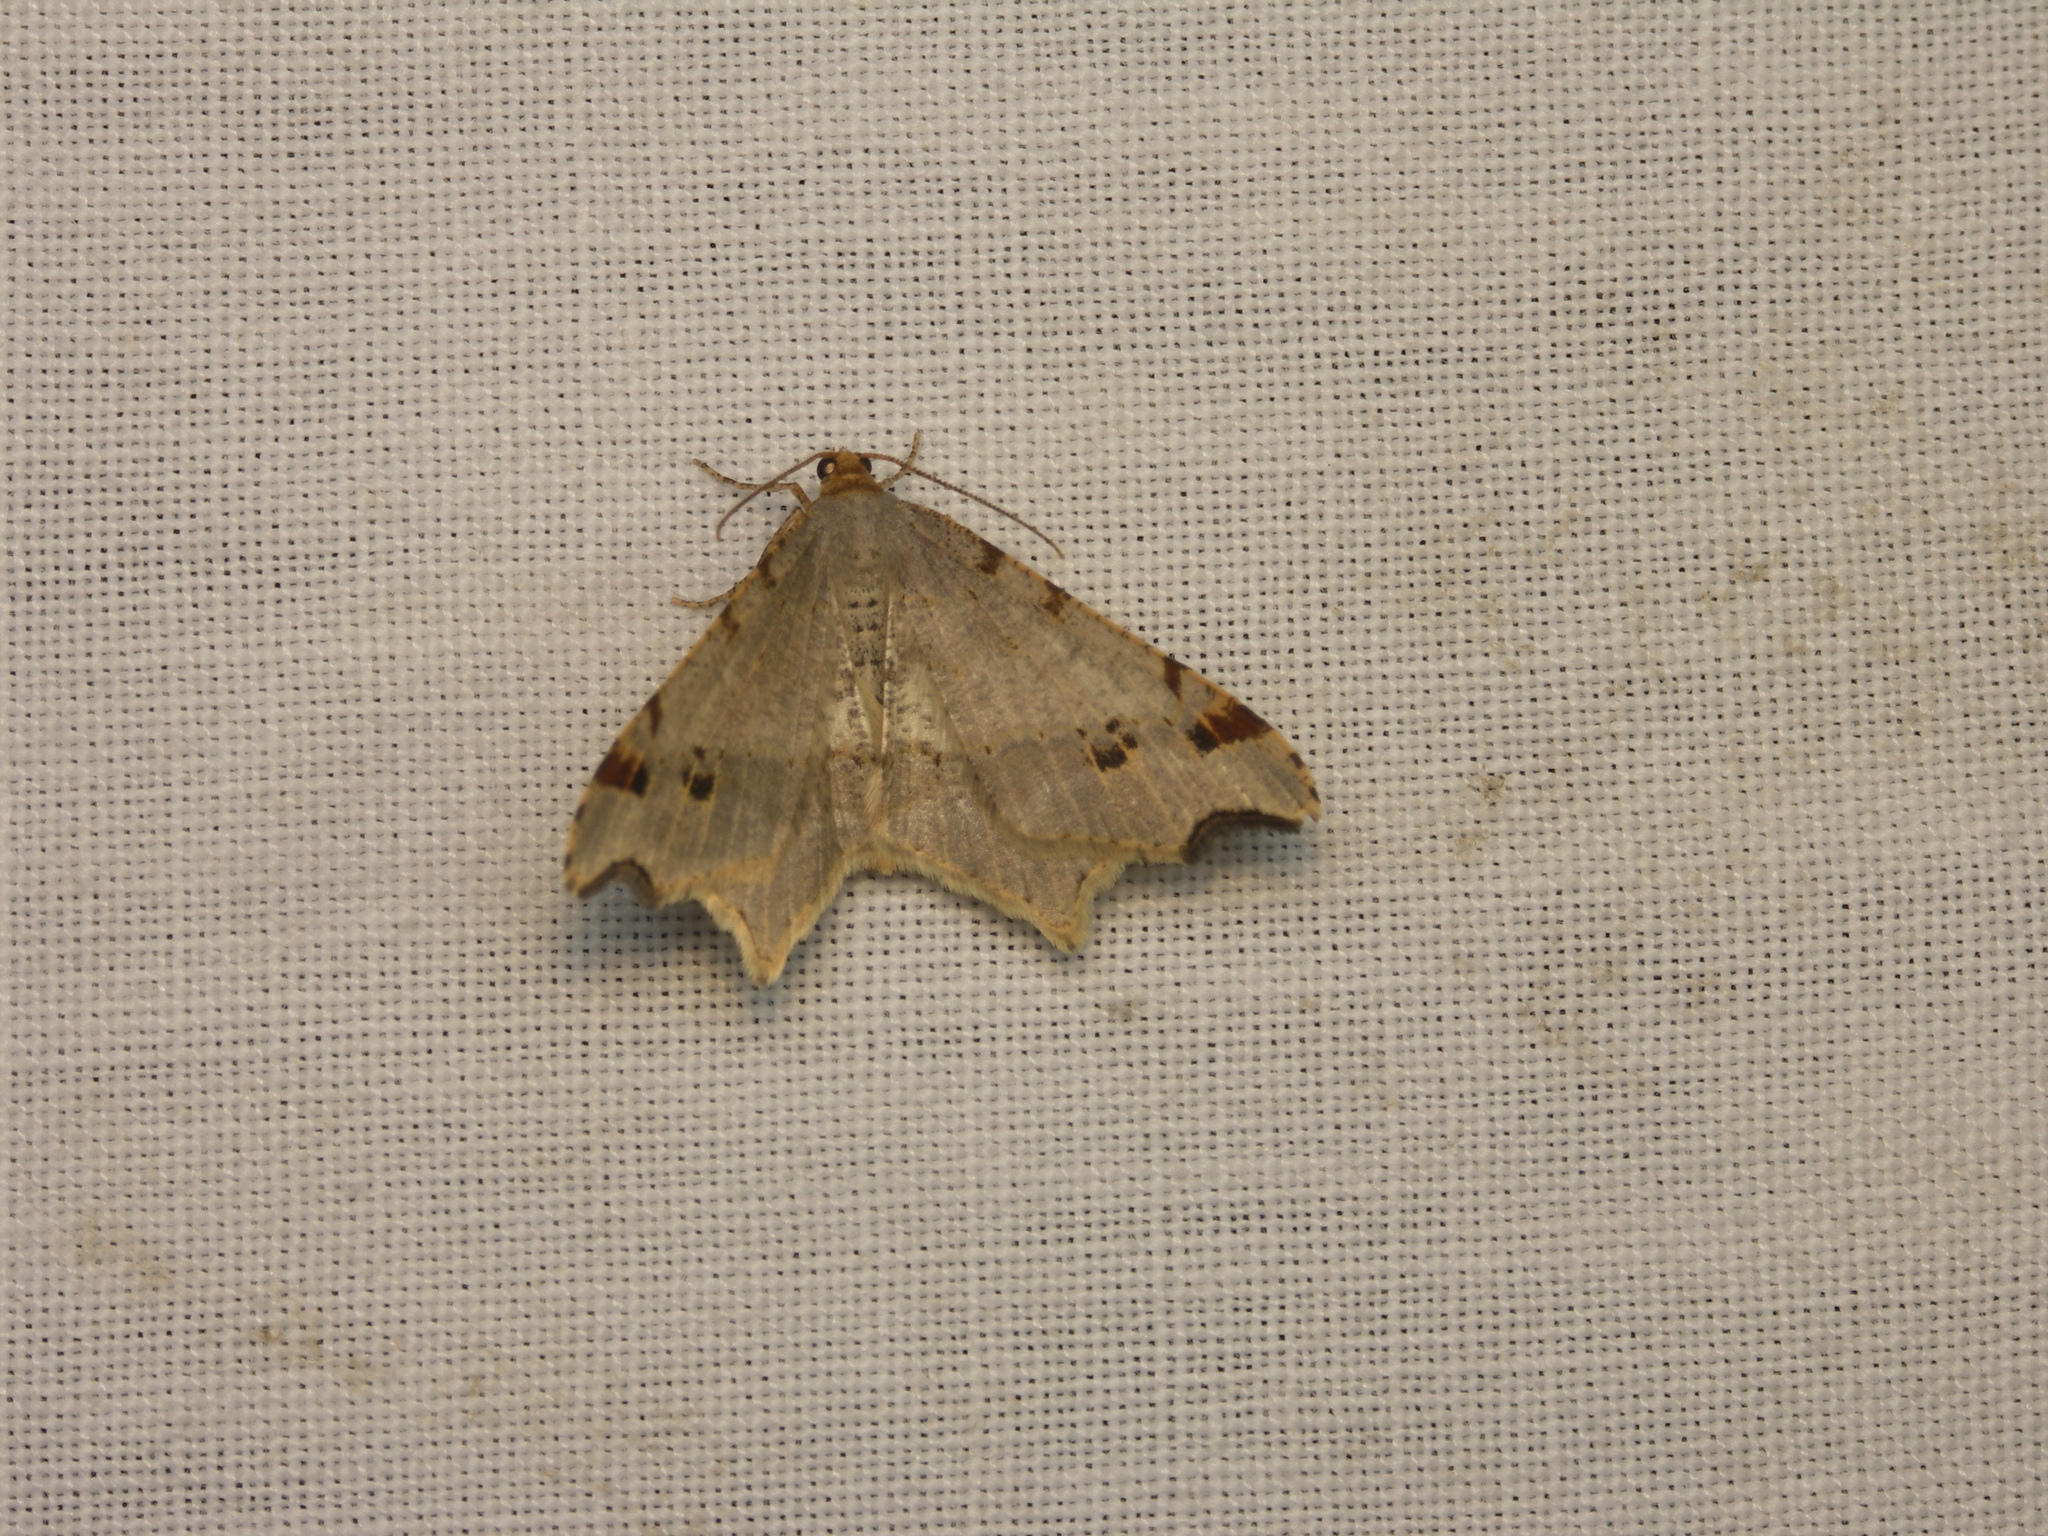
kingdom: Animalia
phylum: Arthropoda
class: Insecta
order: Lepidoptera
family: Geometridae
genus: Macaria
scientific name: Macaria alternata
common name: Sharp-angled peacock
